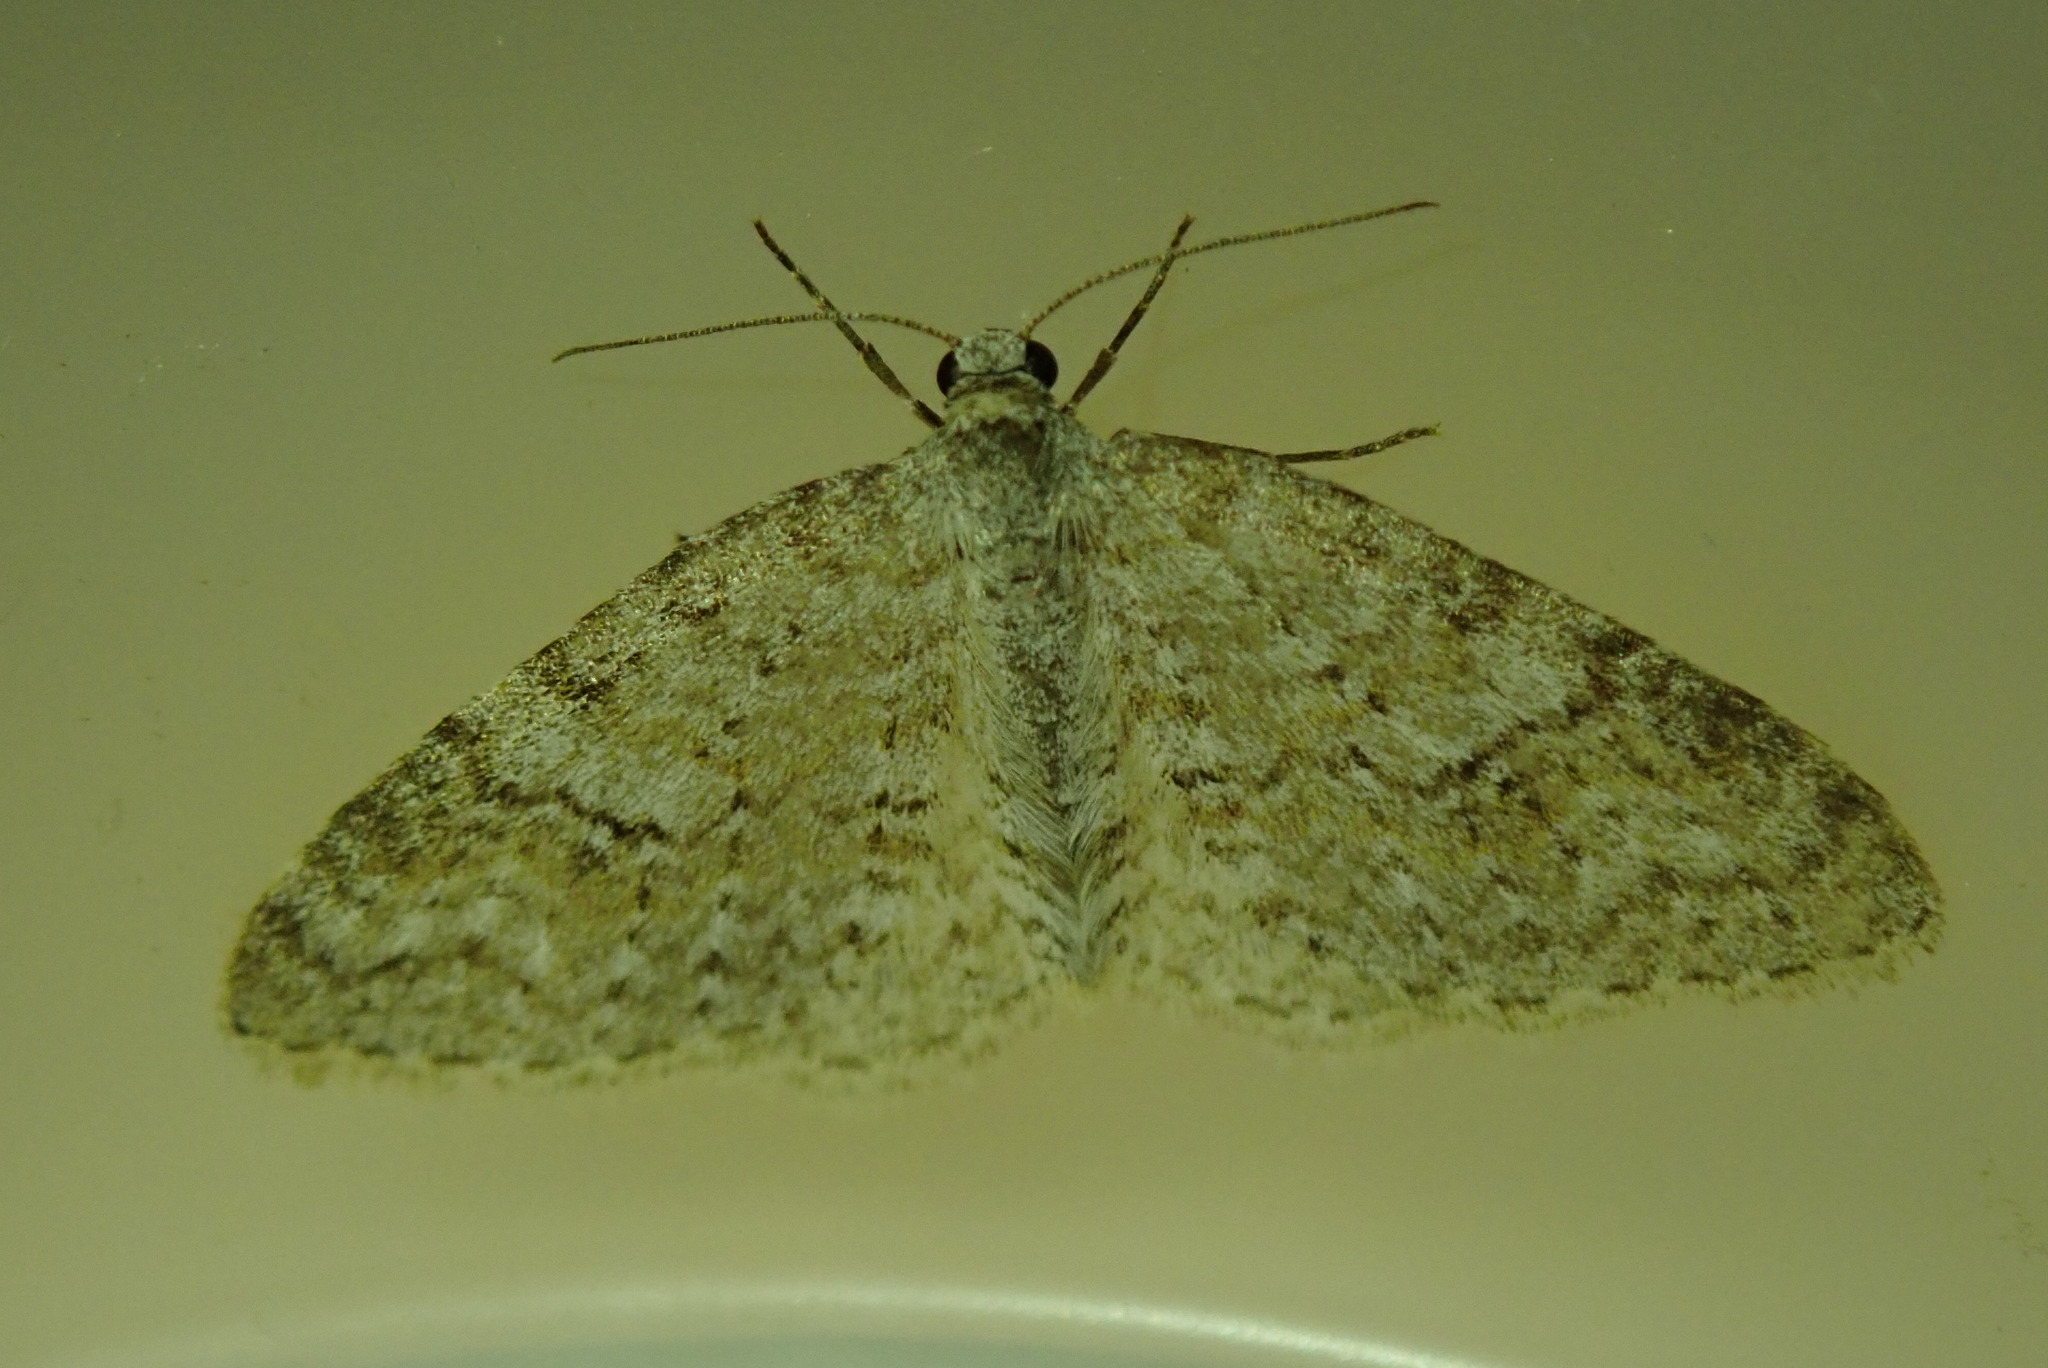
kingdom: Animalia
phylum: Arthropoda
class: Insecta
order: Lepidoptera
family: Geometridae
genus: Lobocleta
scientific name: Lobocleta ossularia
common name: Drab brown wave
